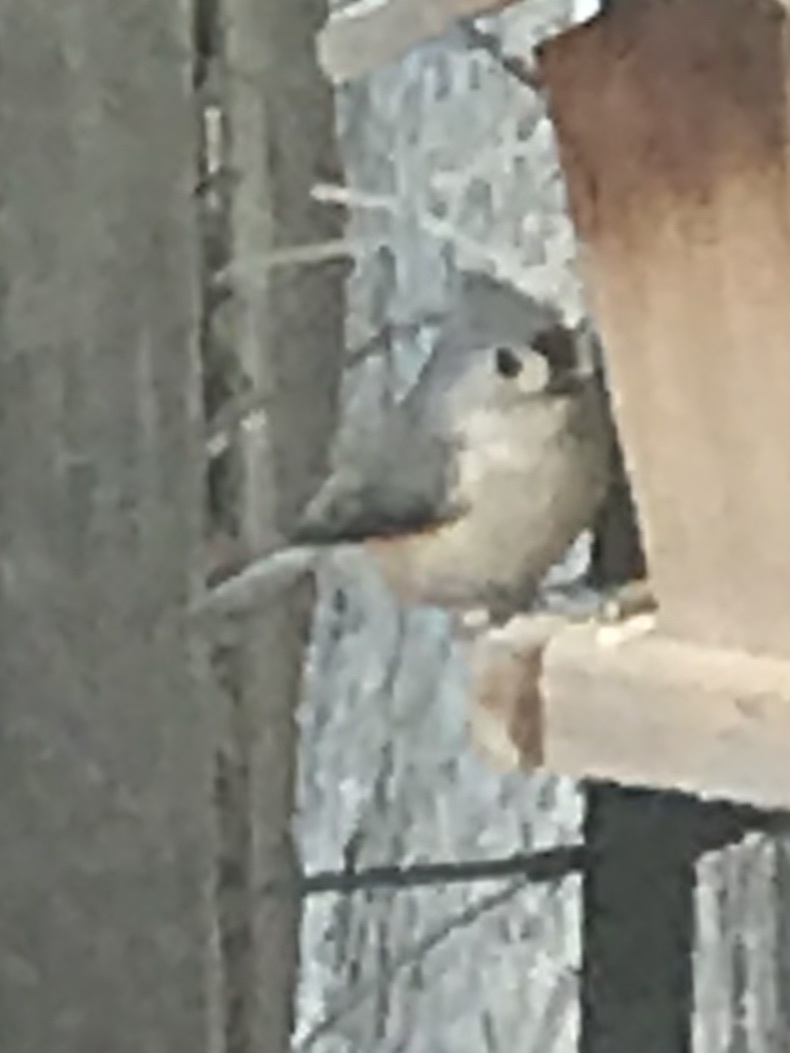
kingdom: Animalia
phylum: Chordata
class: Aves
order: Passeriformes
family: Paridae
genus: Baeolophus
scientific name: Baeolophus bicolor
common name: Tufted titmouse
